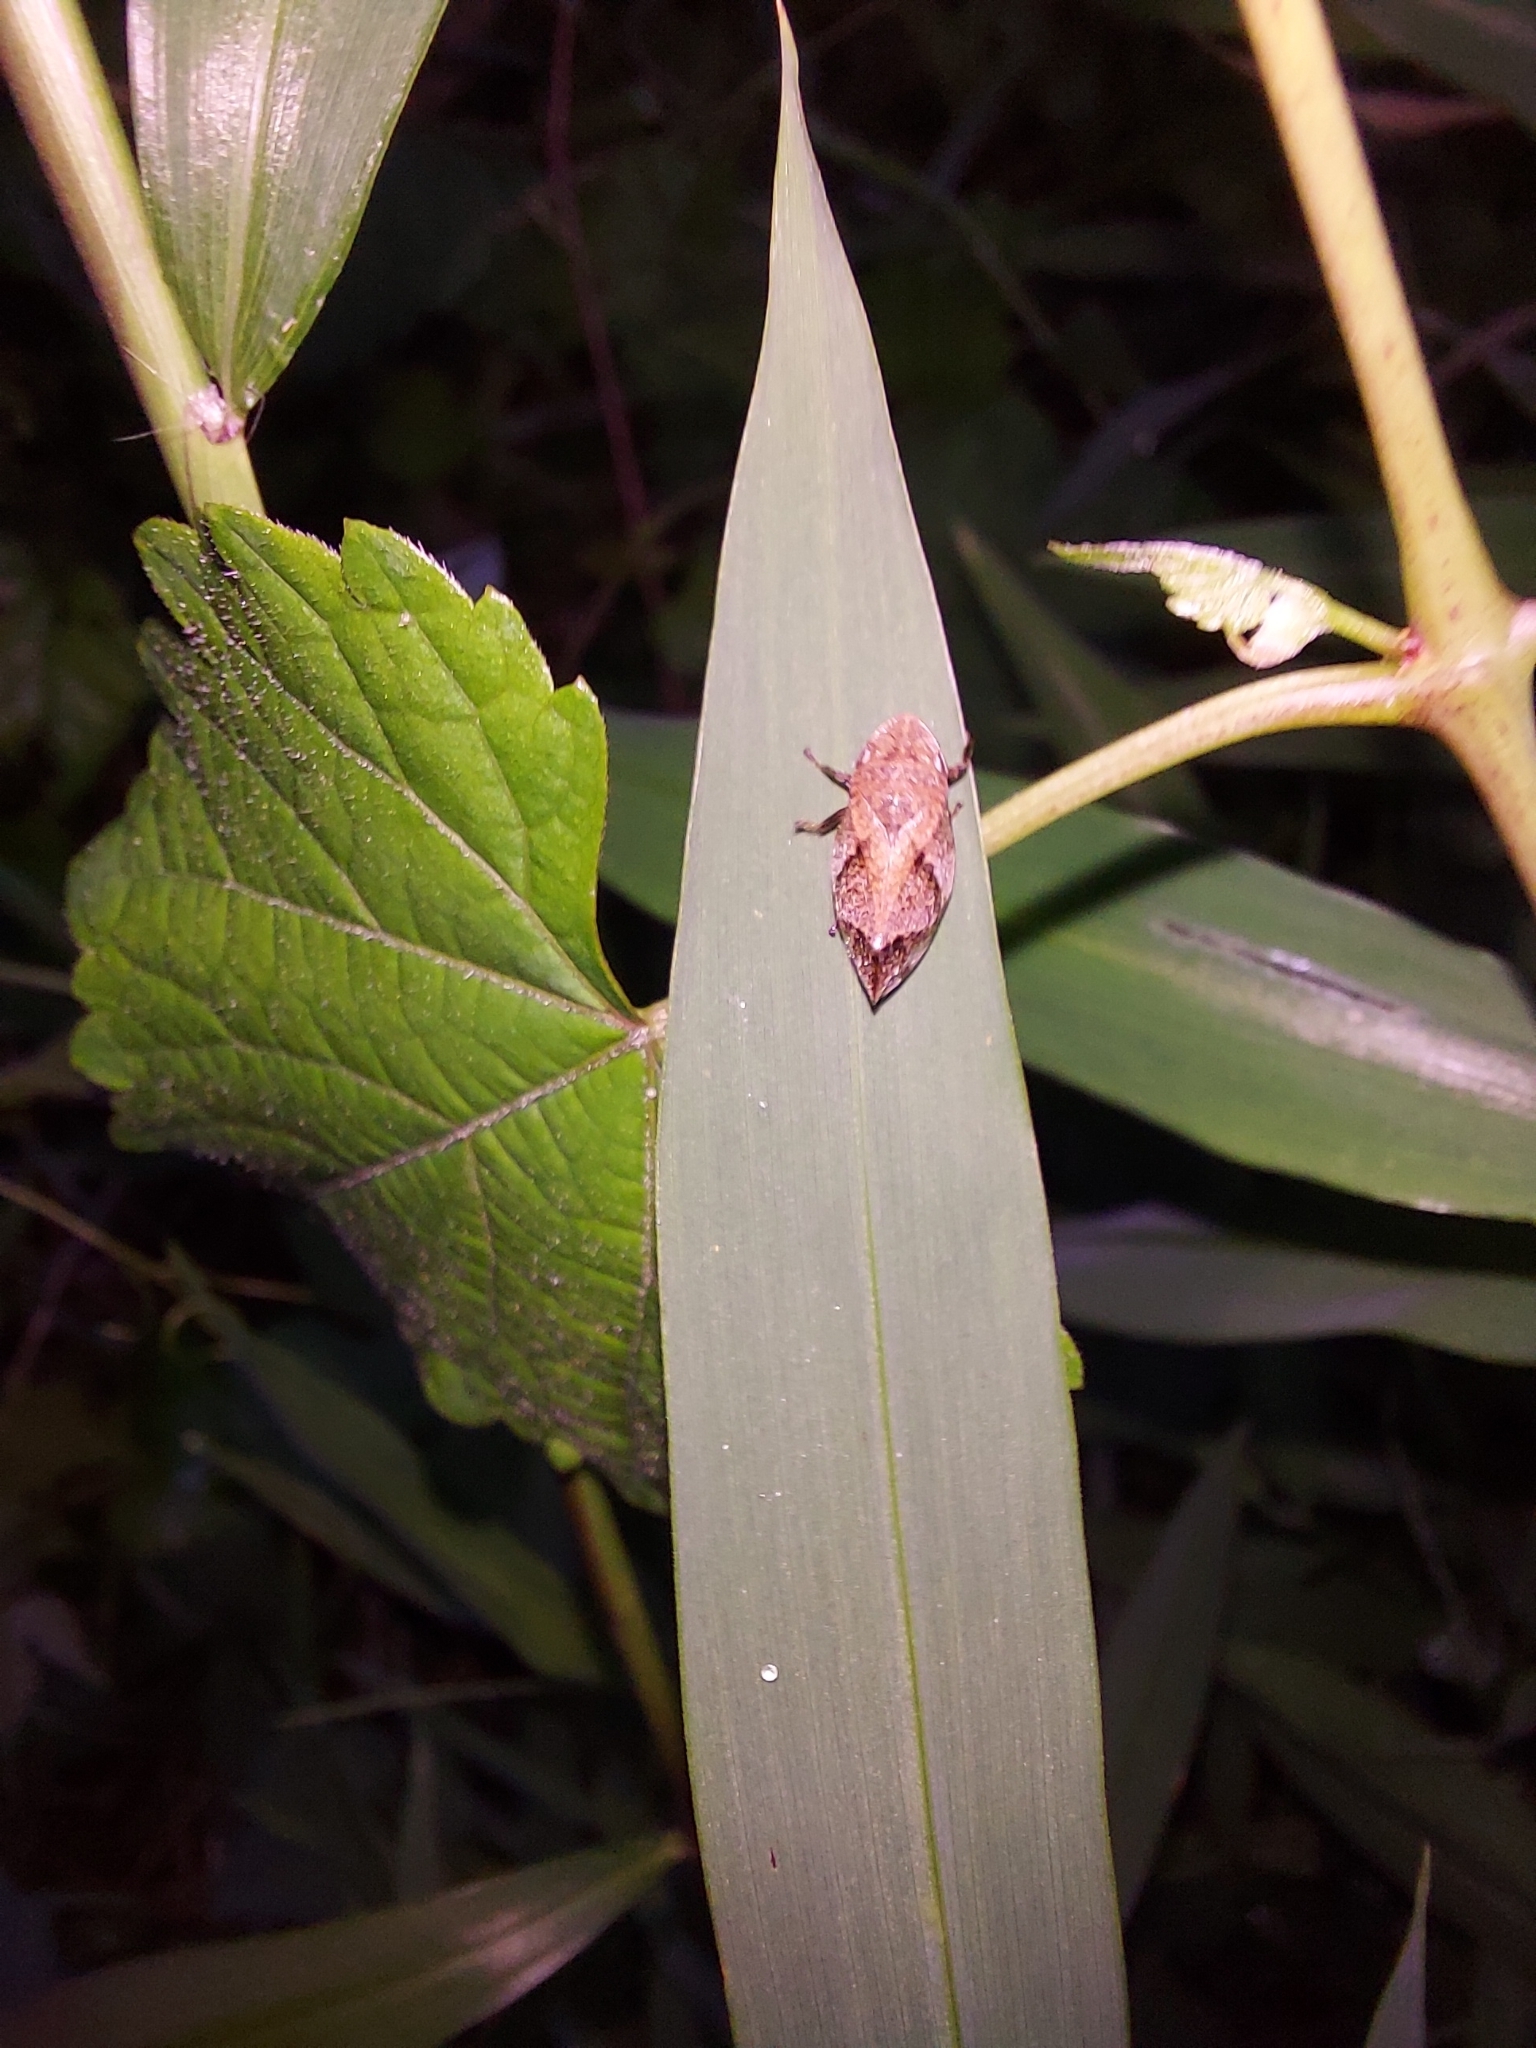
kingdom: Animalia
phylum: Arthropoda
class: Insecta
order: Hemiptera
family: Aphrophoridae
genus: Lepyronia
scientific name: Lepyronia quadrangularis
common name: Diamond-backed spittlebug
